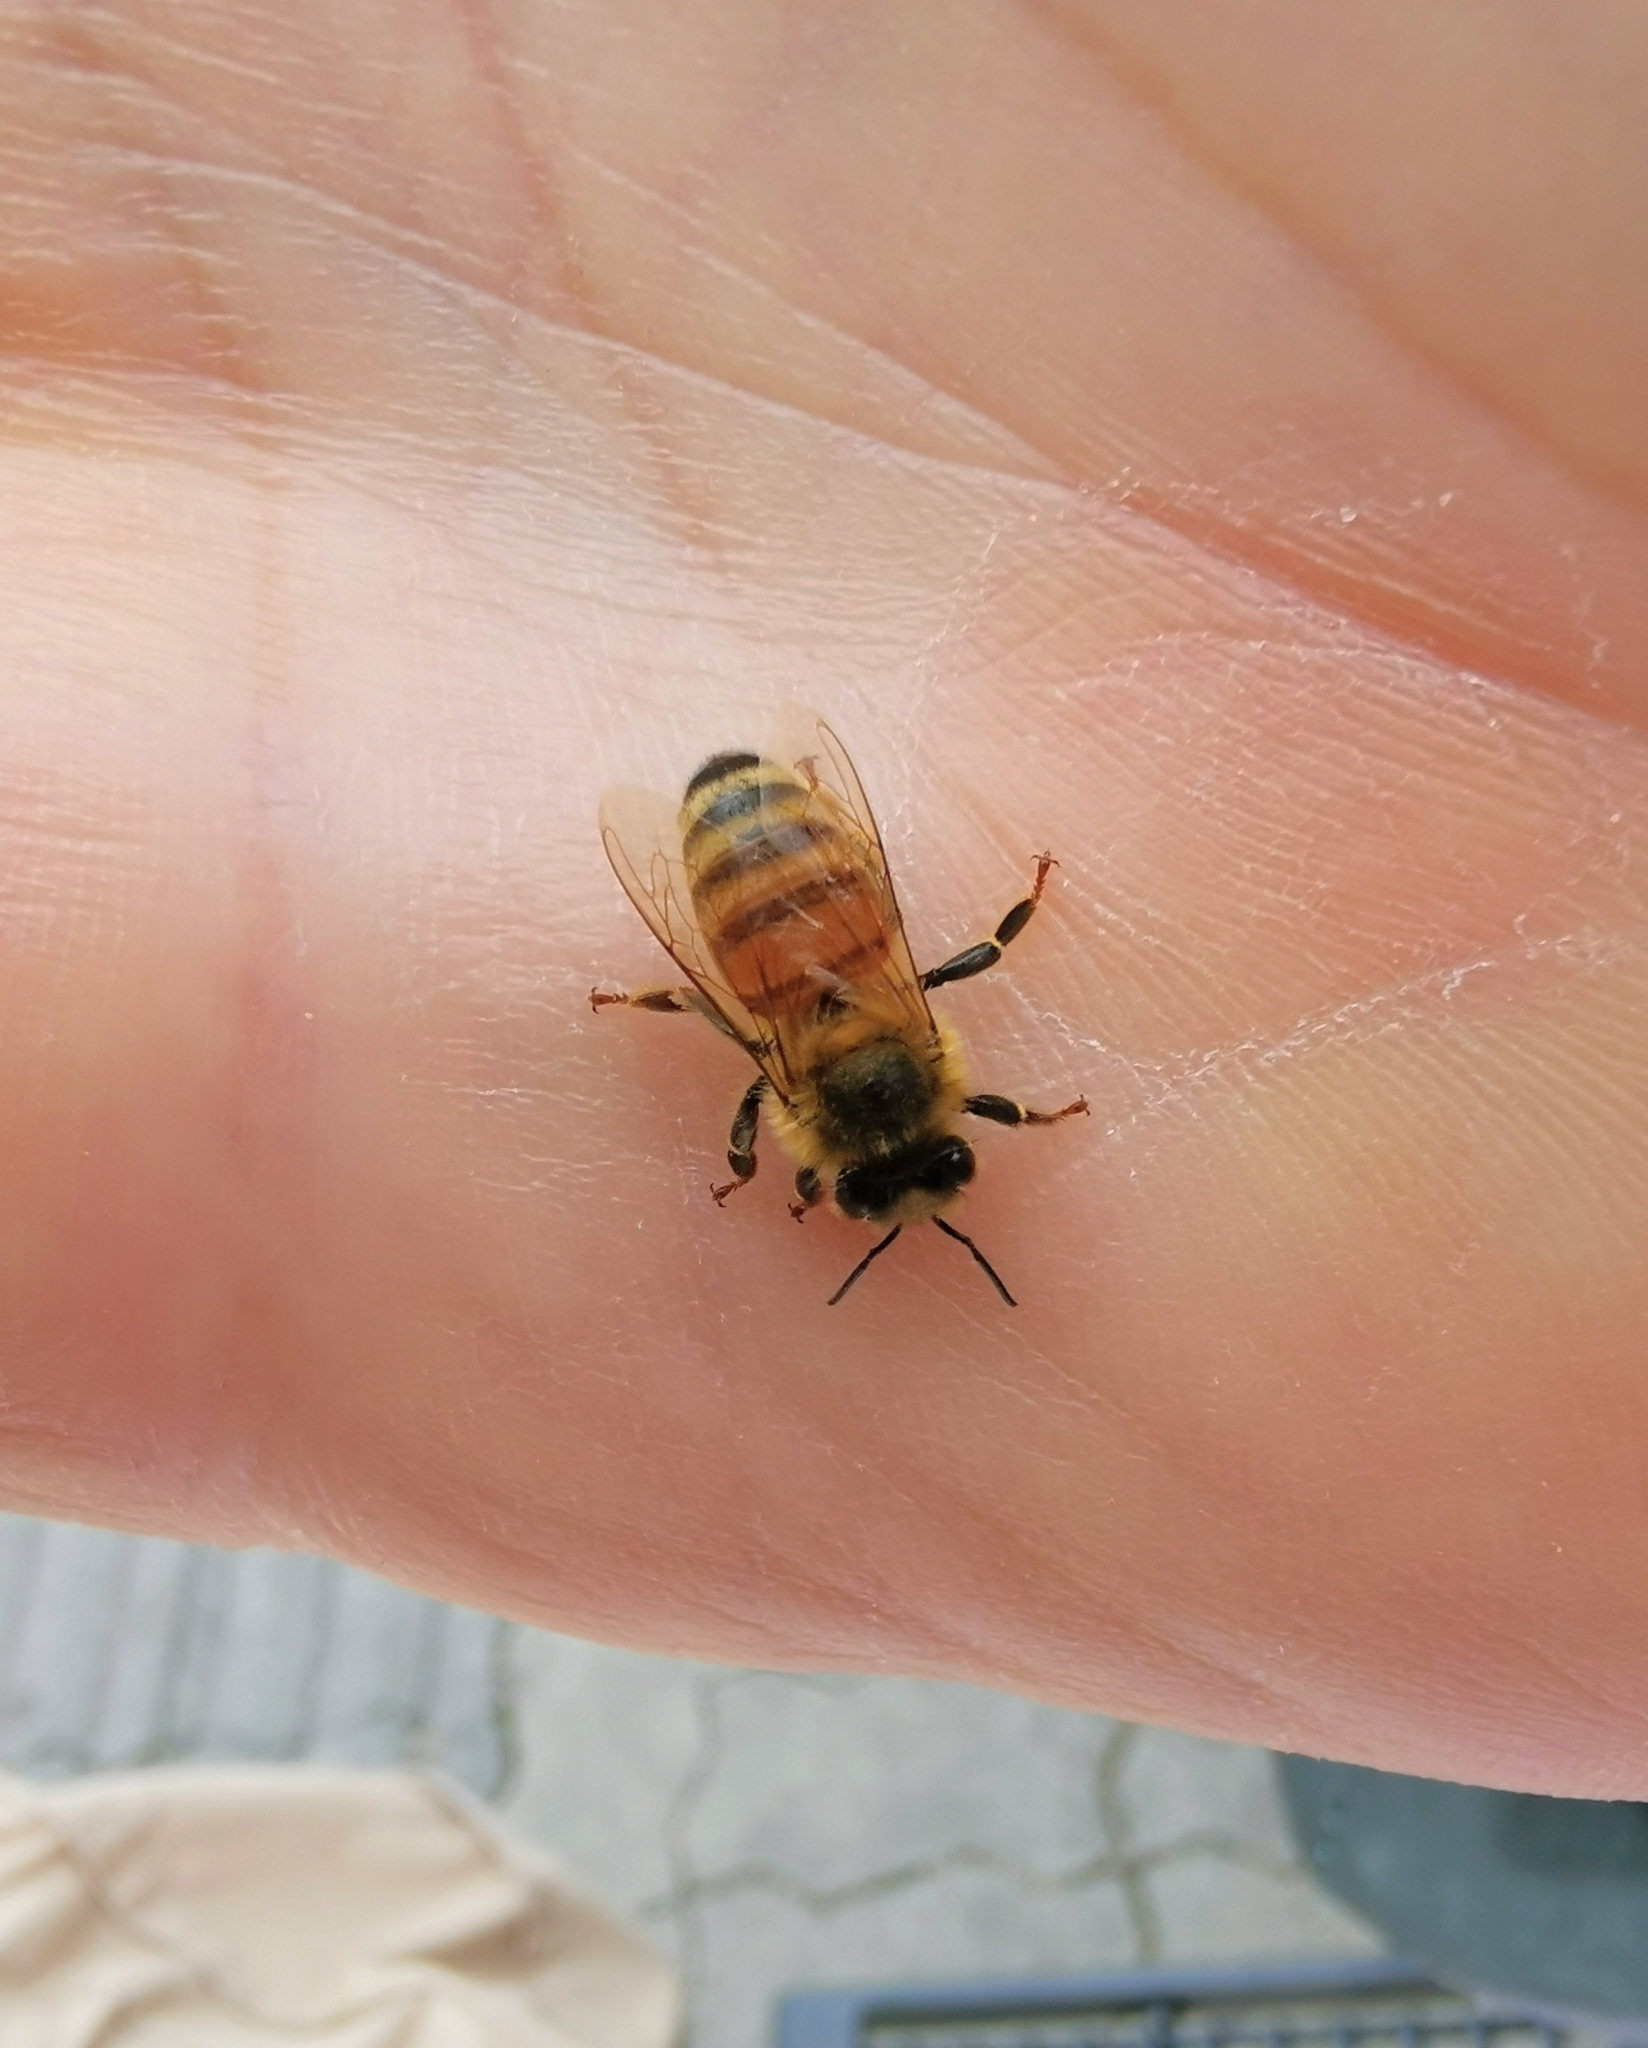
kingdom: Animalia
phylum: Arthropoda
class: Insecta
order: Hymenoptera
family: Apidae
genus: Apis
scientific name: Apis mellifera
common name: Honey bee
